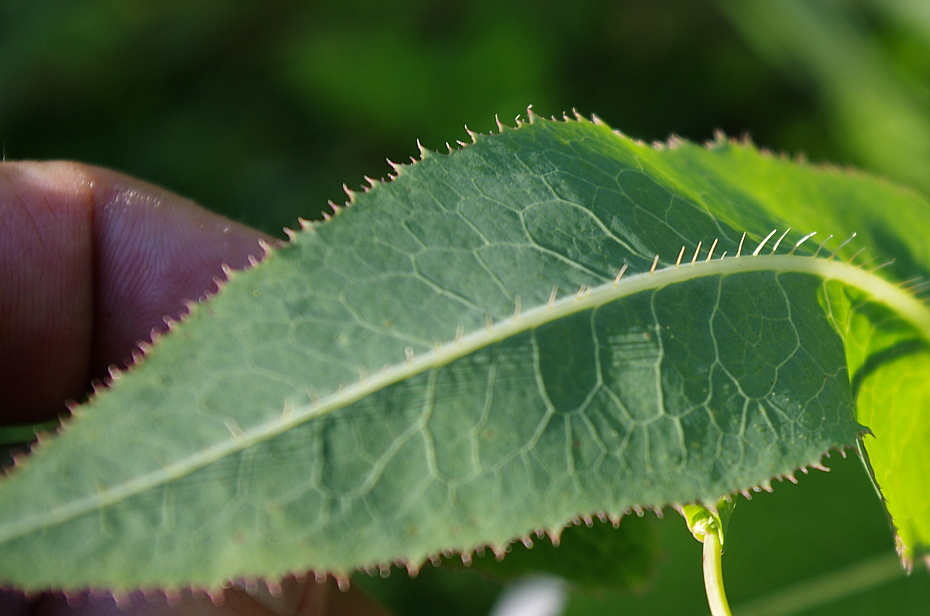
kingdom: Plantae
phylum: Tracheophyta
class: Magnoliopsida
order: Asterales
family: Asteraceae
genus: Lactuca
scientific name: Lactuca serriola
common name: Prickly lettuce
